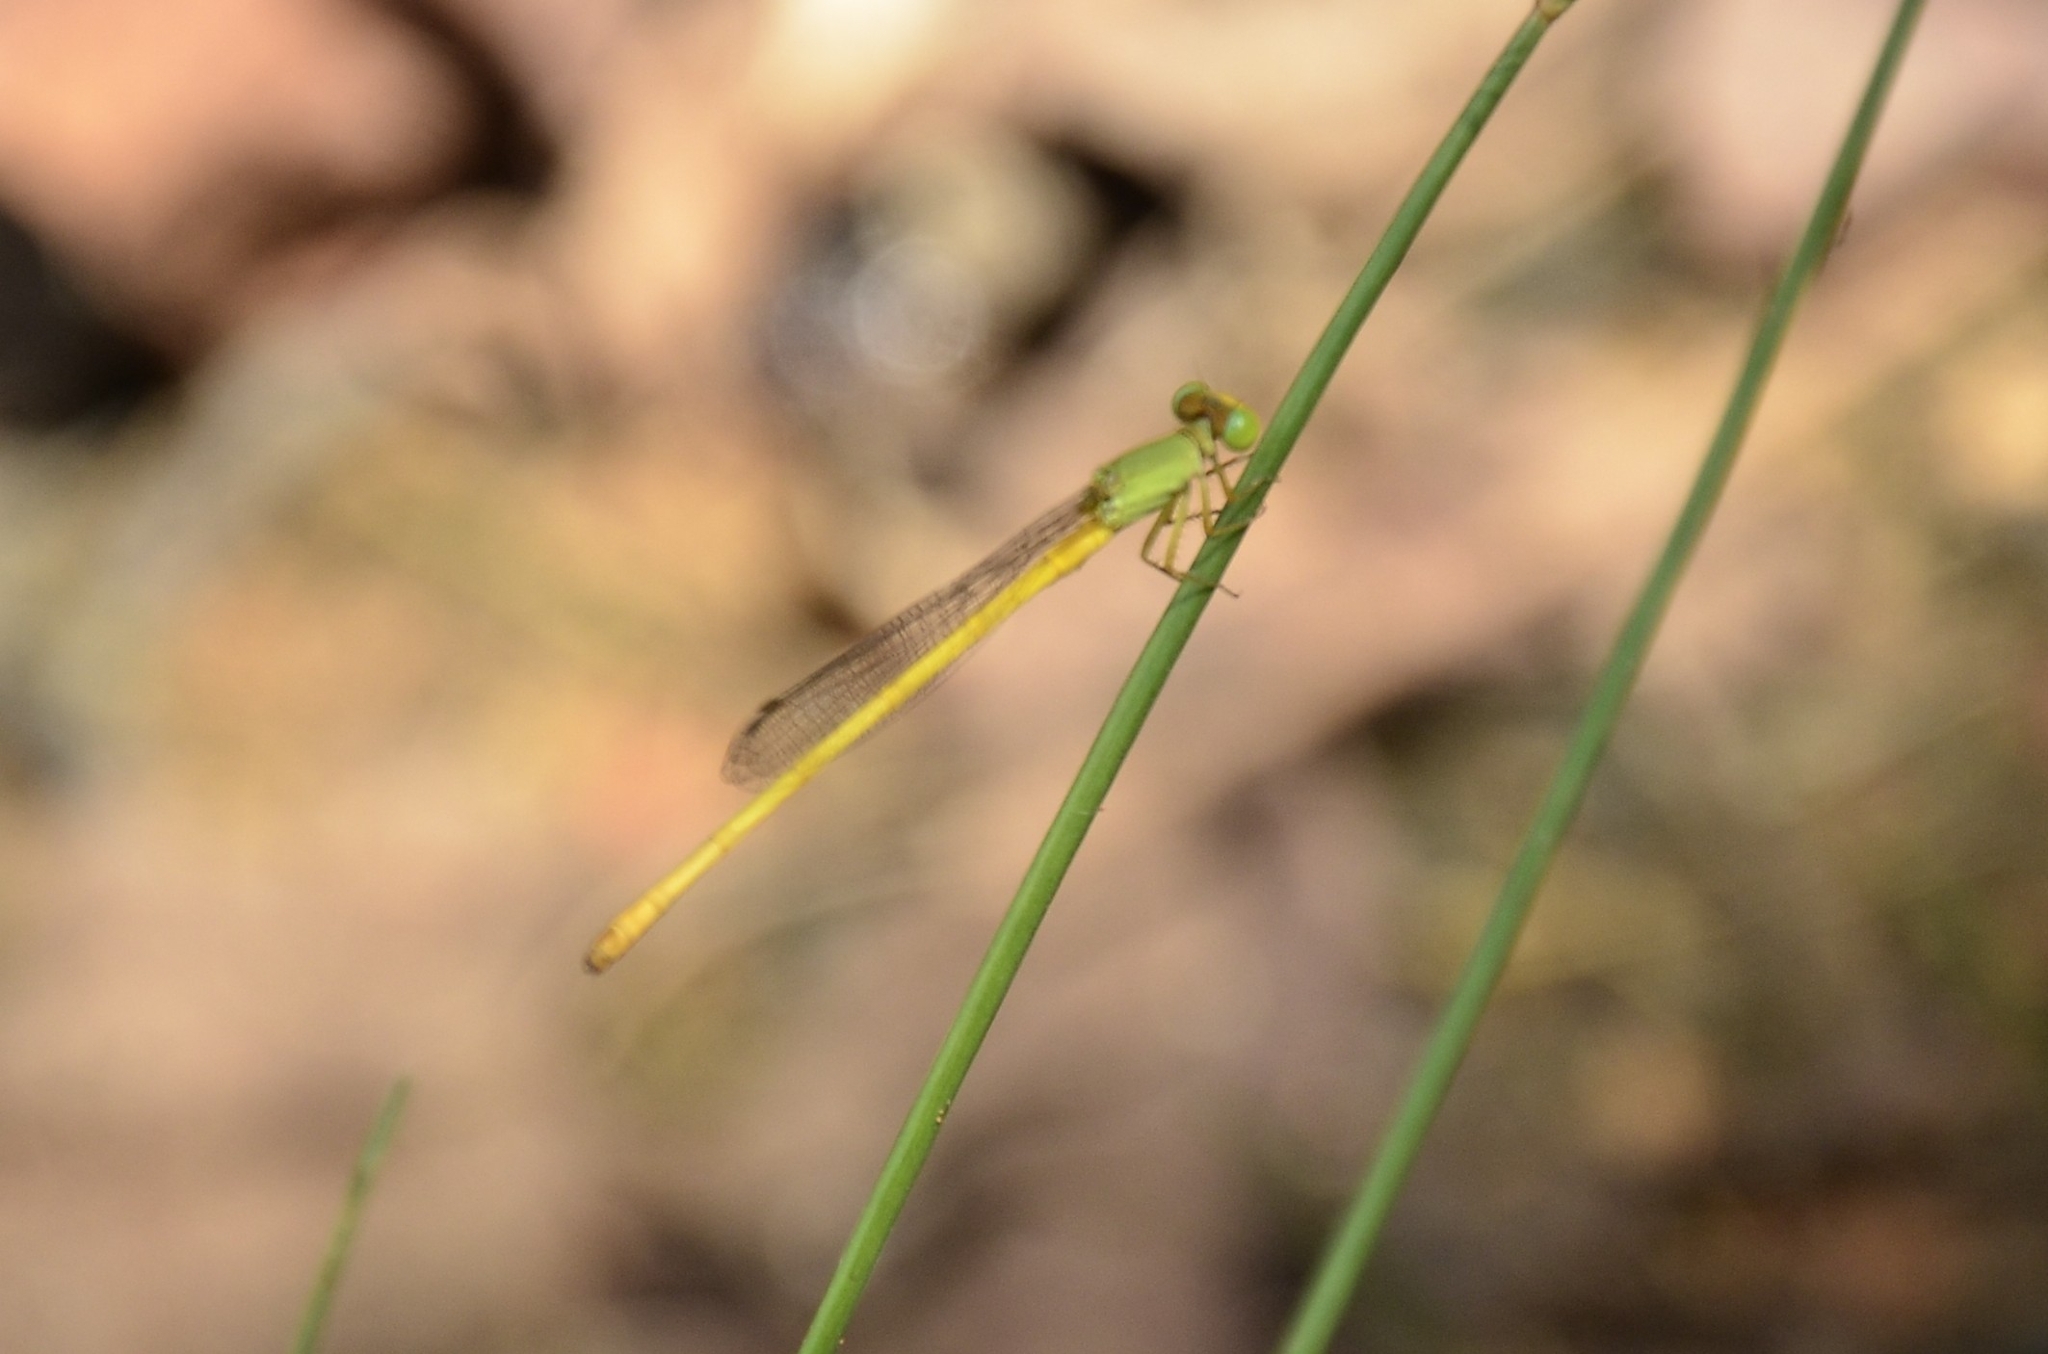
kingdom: Animalia
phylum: Arthropoda
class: Insecta
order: Odonata
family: Coenagrionidae
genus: Ceriagrion
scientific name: Ceriagrion coromandelianum
